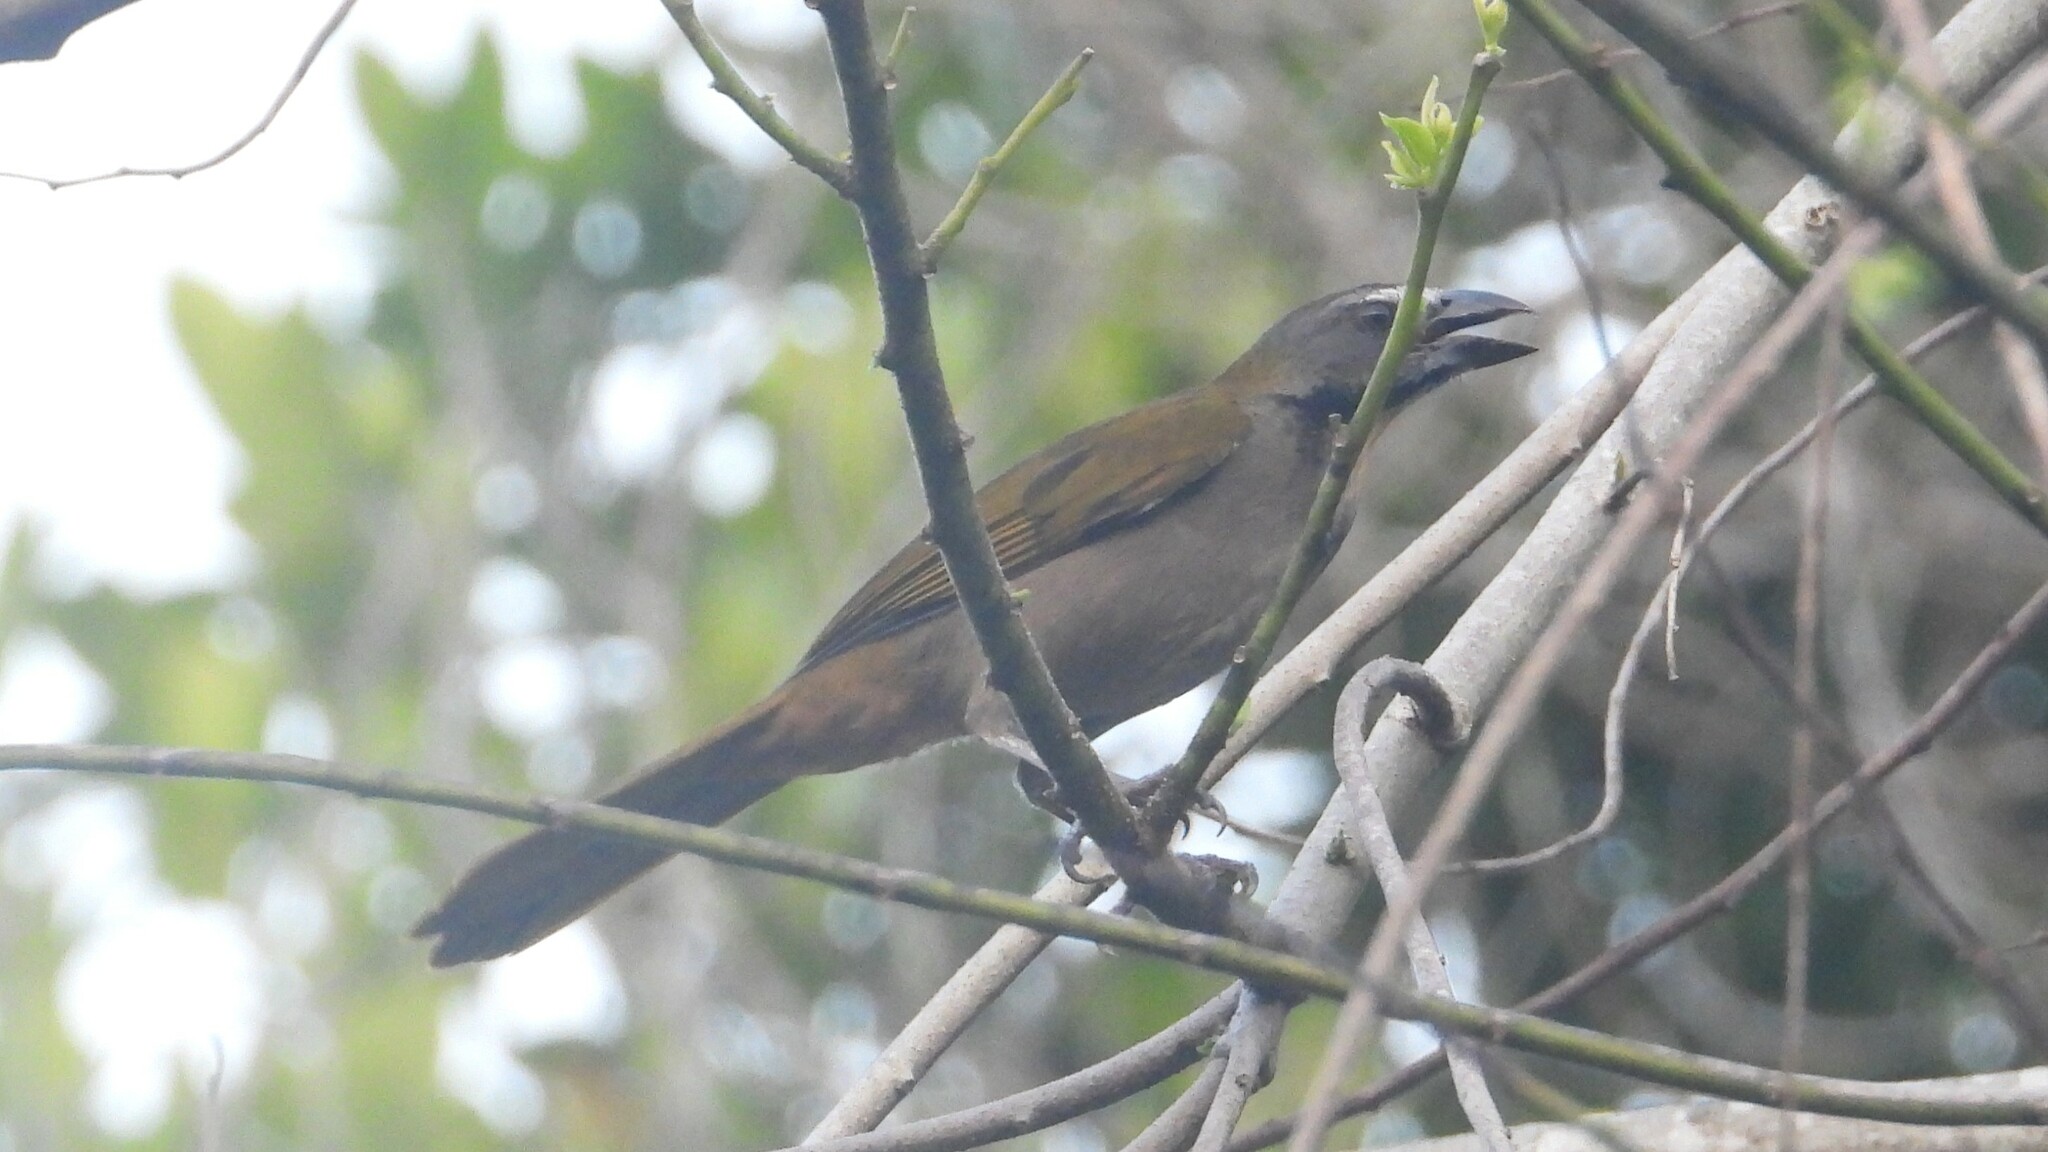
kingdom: Animalia
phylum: Chordata
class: Aves
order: Passeriformes
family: Thraupidae
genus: Saltator
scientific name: Saltator maximus
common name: Buff-throated saltator
